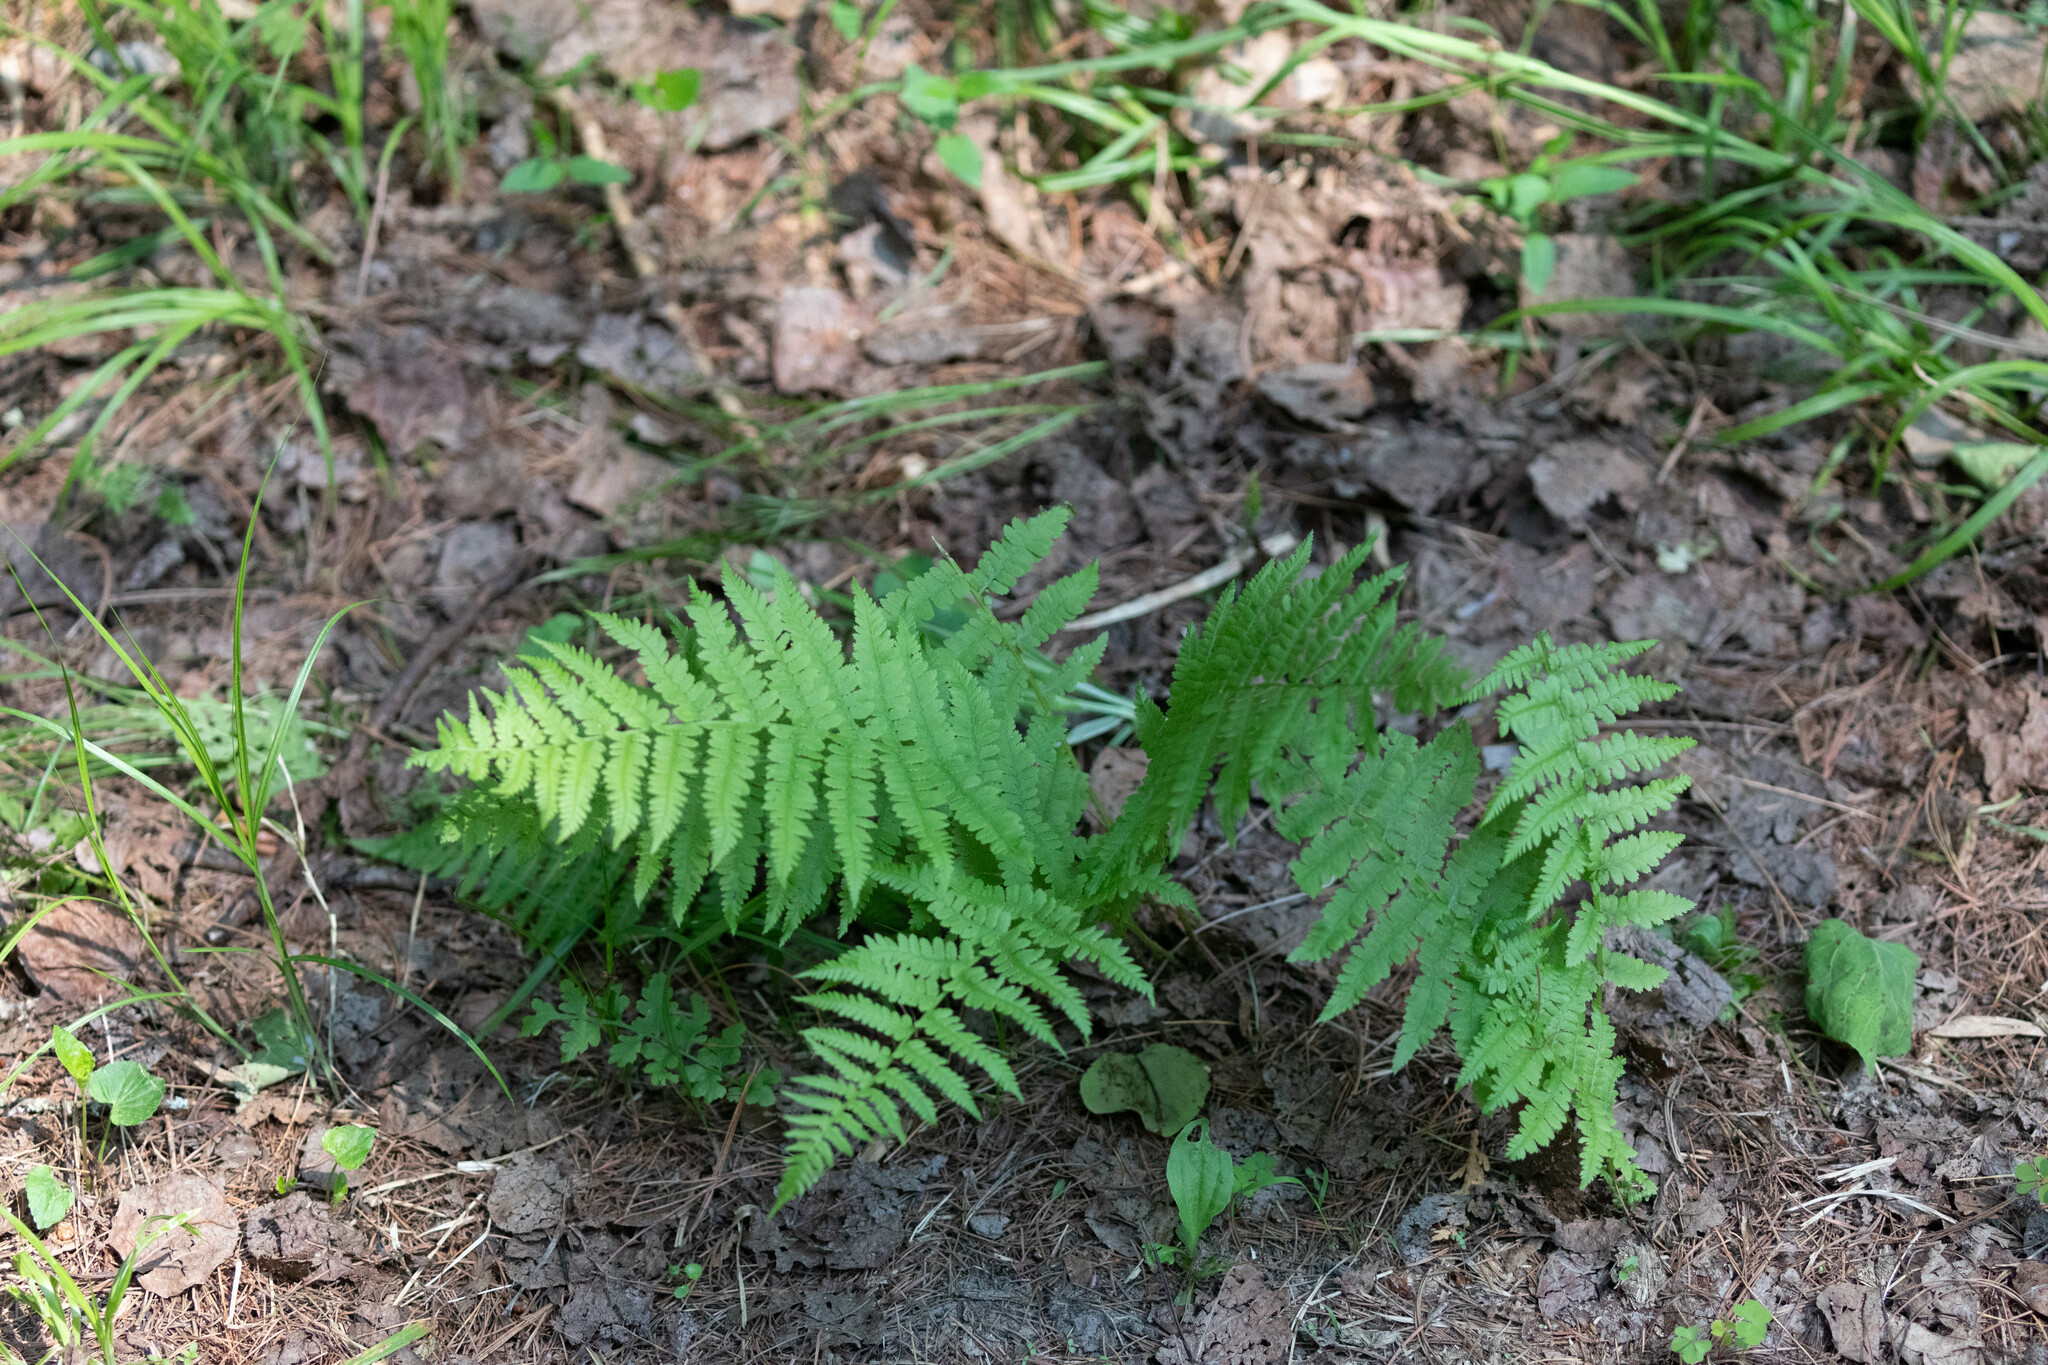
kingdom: Plantae
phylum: Tracheophyta
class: Polypodiopsida
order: Polypodiales
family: Athyriaceae
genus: Athyrium
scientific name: Athyrium angustum
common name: Northern lady fern
